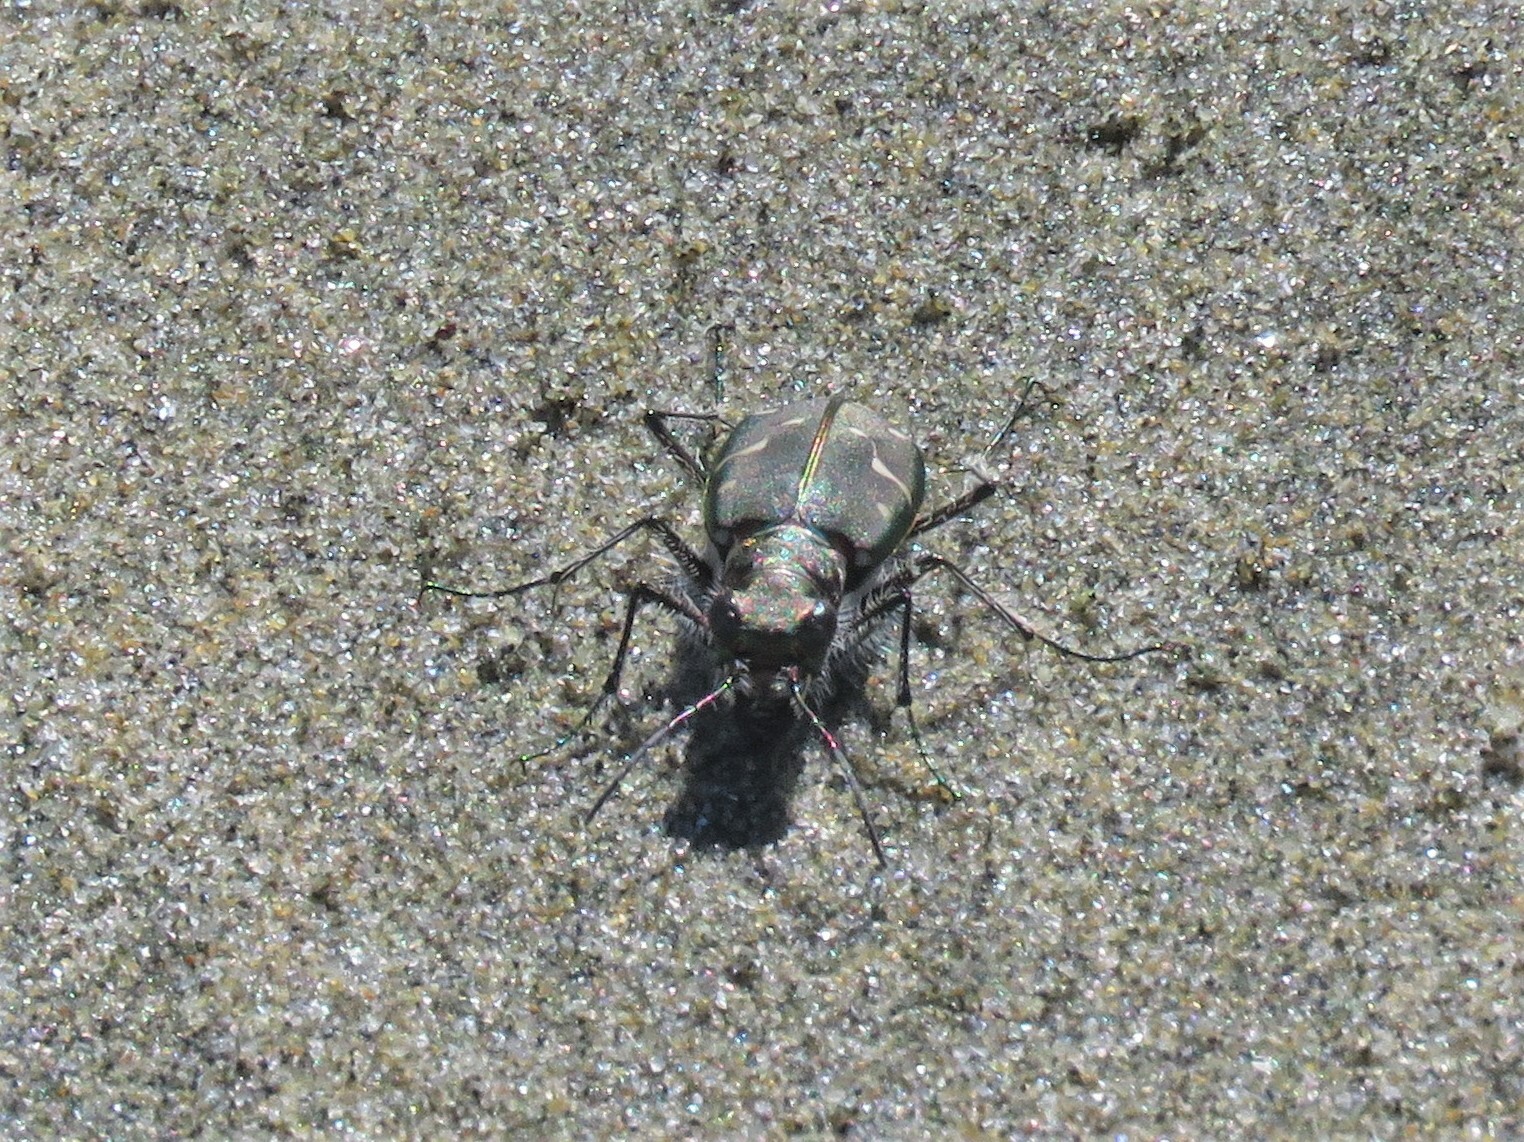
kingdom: Animalia
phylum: Arthropoda
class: Insecta
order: Coleoptera
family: Carabidae
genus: Cicindela
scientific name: Cicindela oregona
